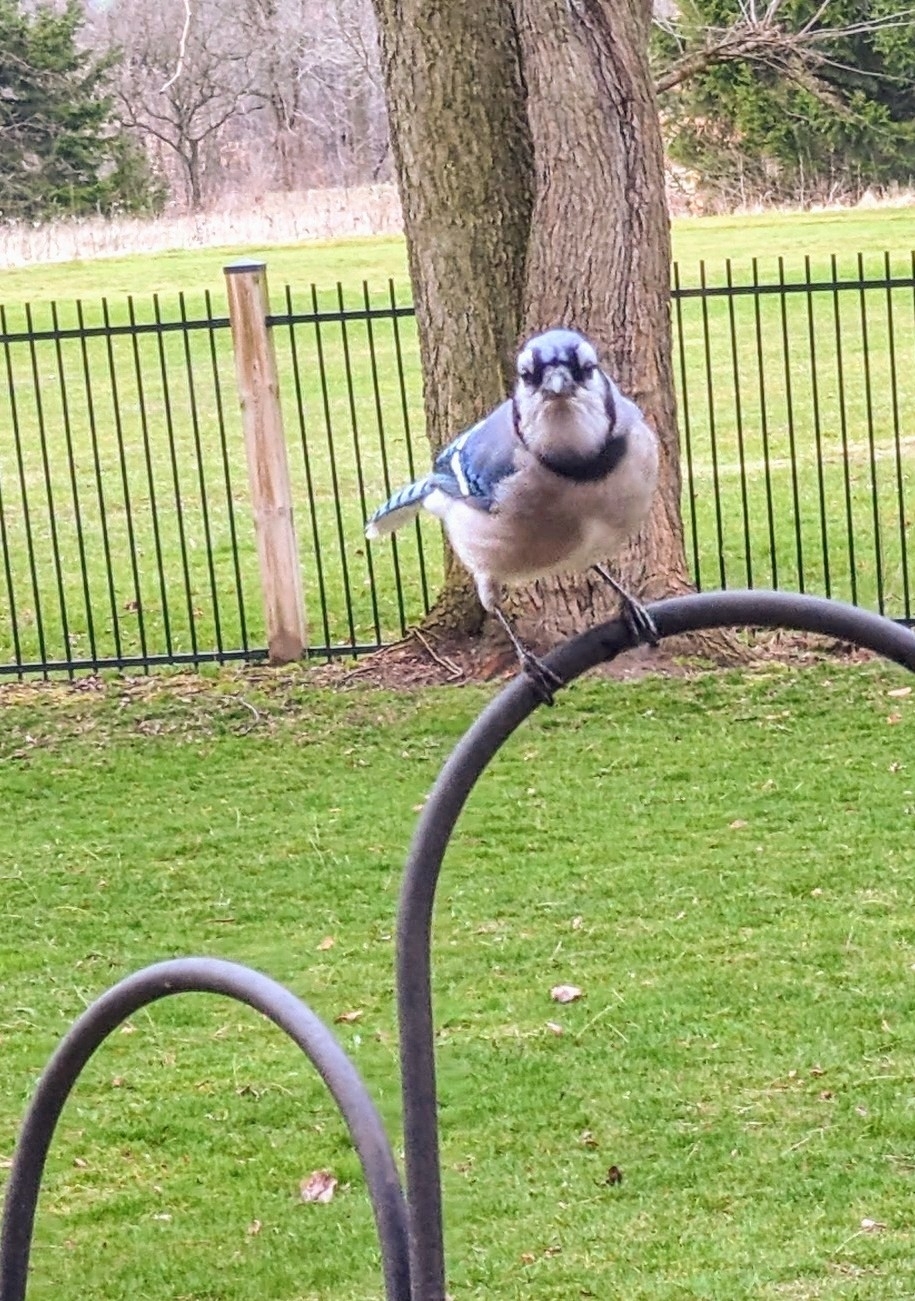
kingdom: Animalia
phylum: Chordata
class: Aves
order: Passeriformes
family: Corvidae
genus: Cyanocitta
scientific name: Cyanocitta cristata
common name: Blue jay
